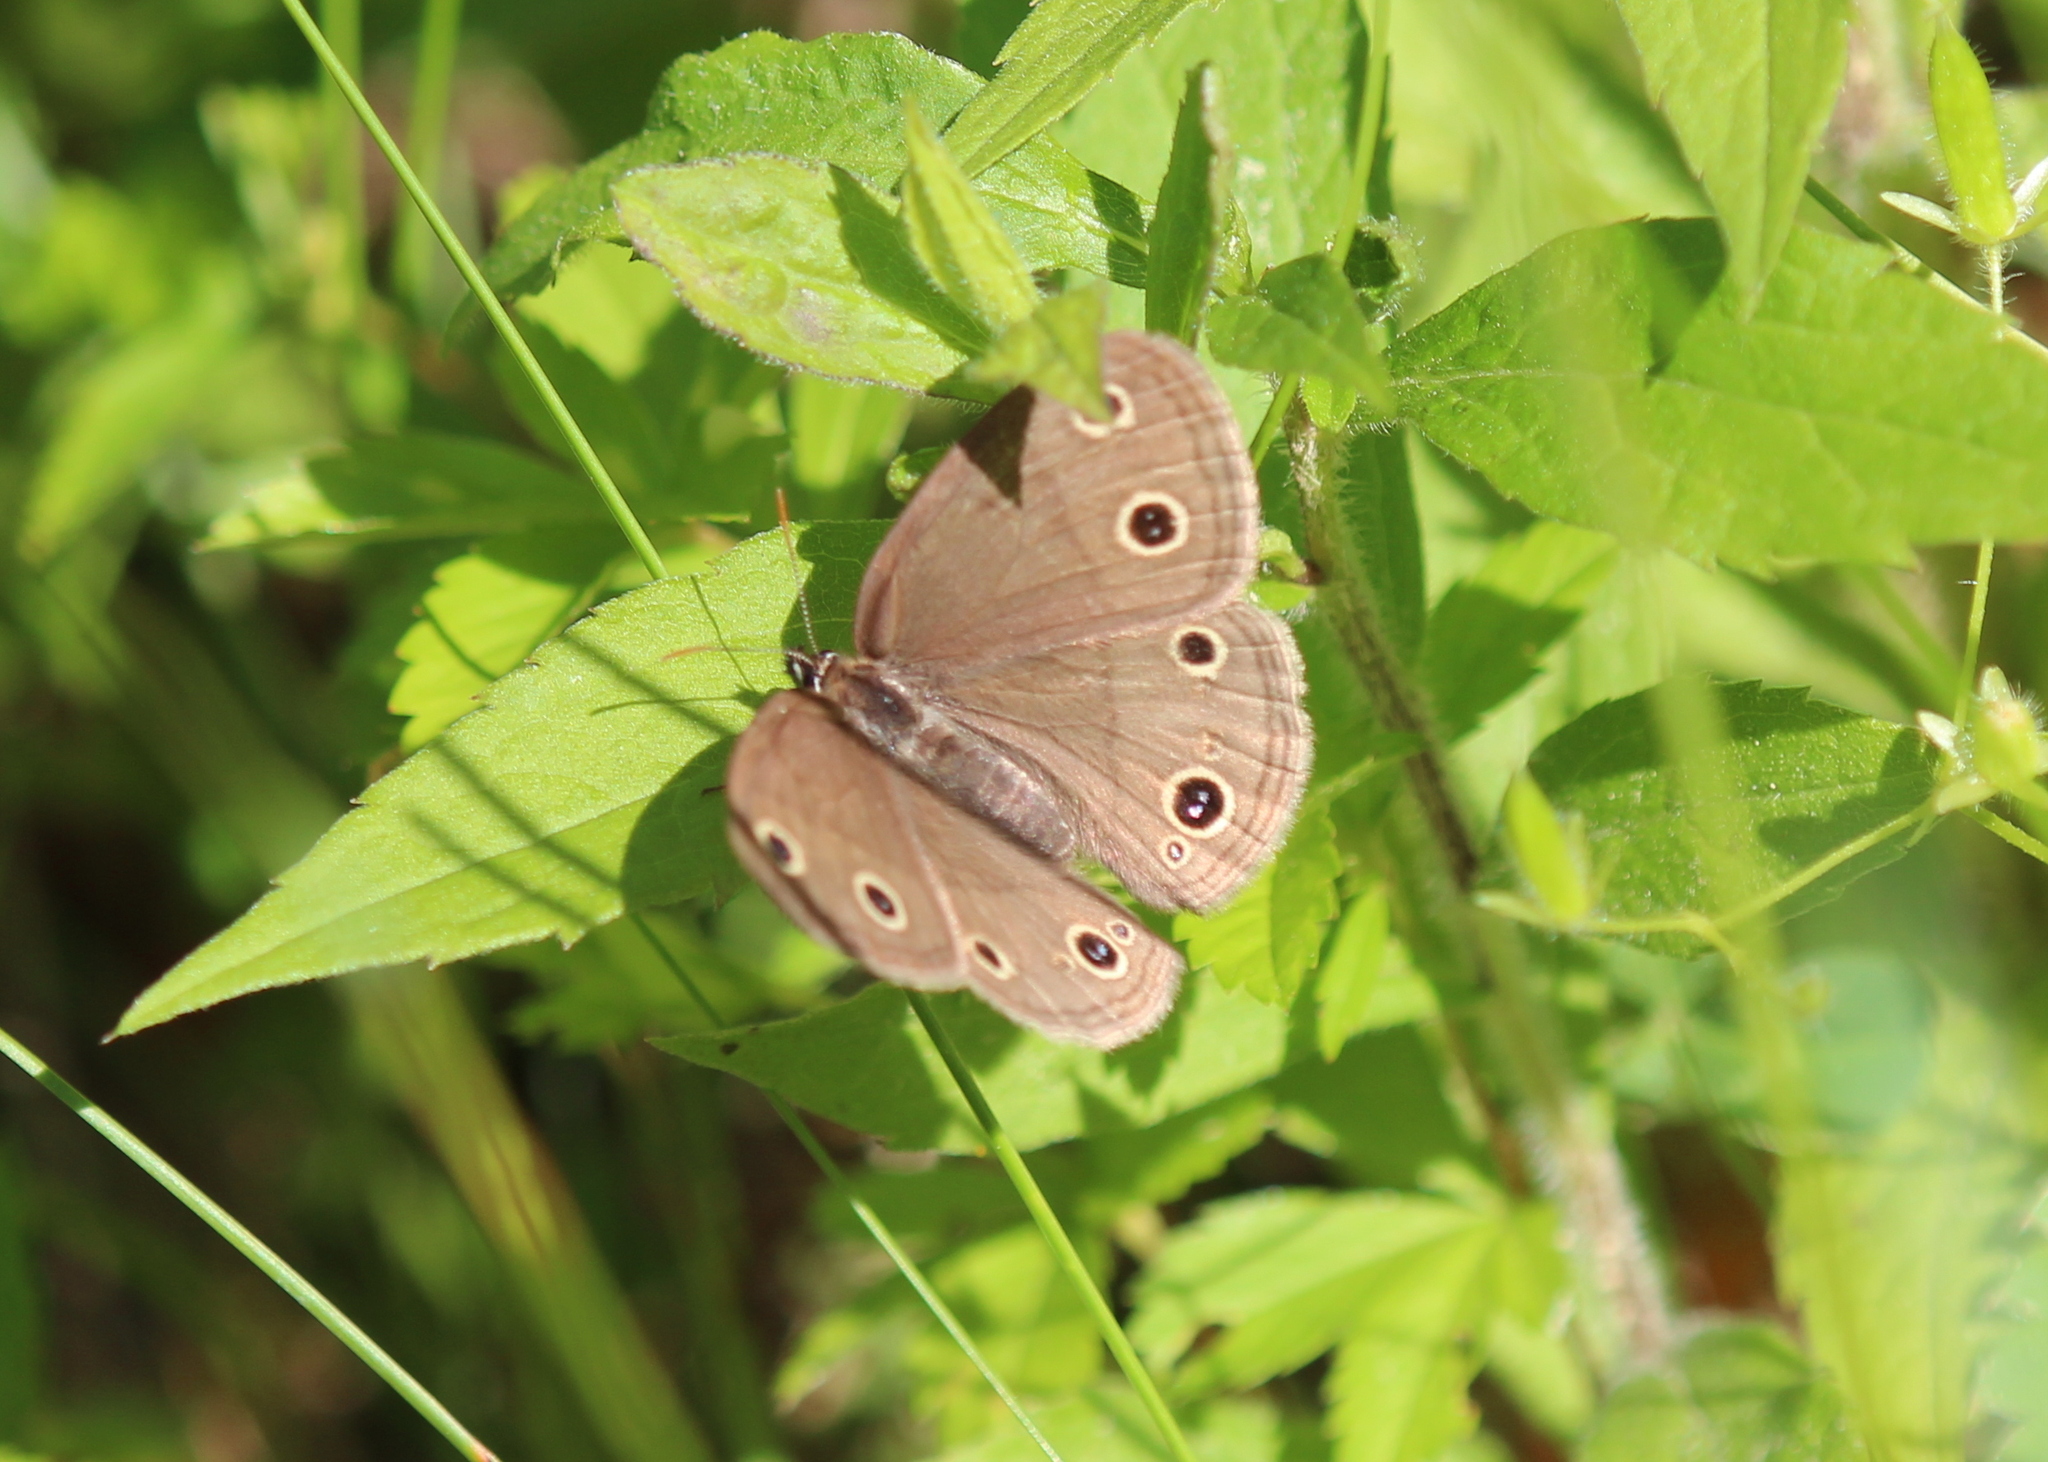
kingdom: Animalia
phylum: Arthropoda
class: Insecta
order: Lepidoptera
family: Nymphalidae
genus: Euptychia
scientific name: Euptychia cymela
